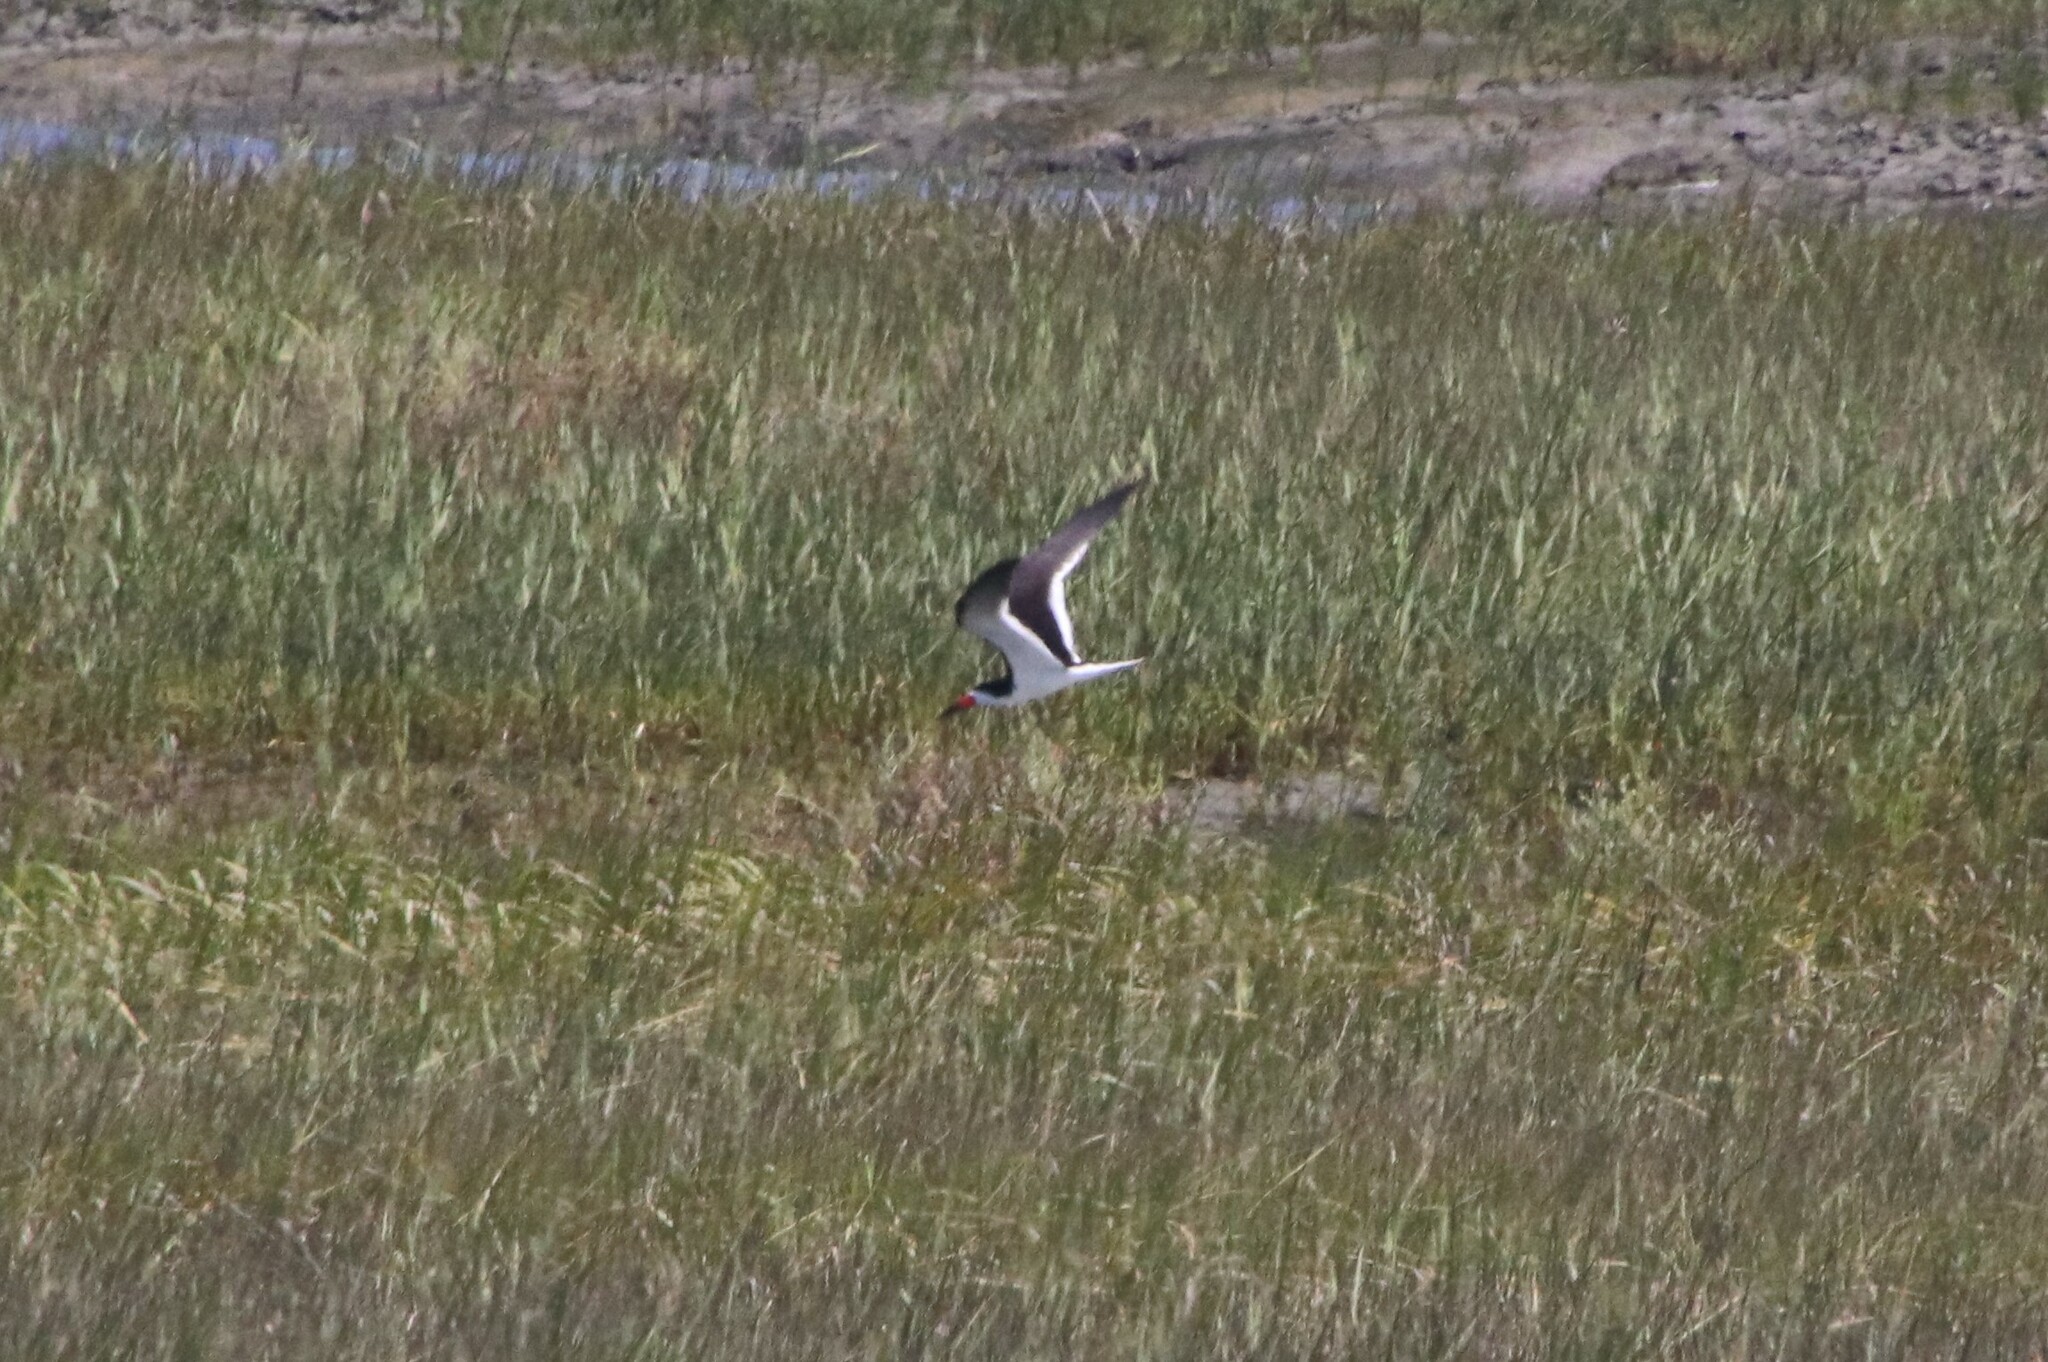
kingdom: Animalia
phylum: Chordata
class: Aves
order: Charadriiformes
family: Laridae
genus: Rynchops
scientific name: Rynchops niger
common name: Black skimmer
